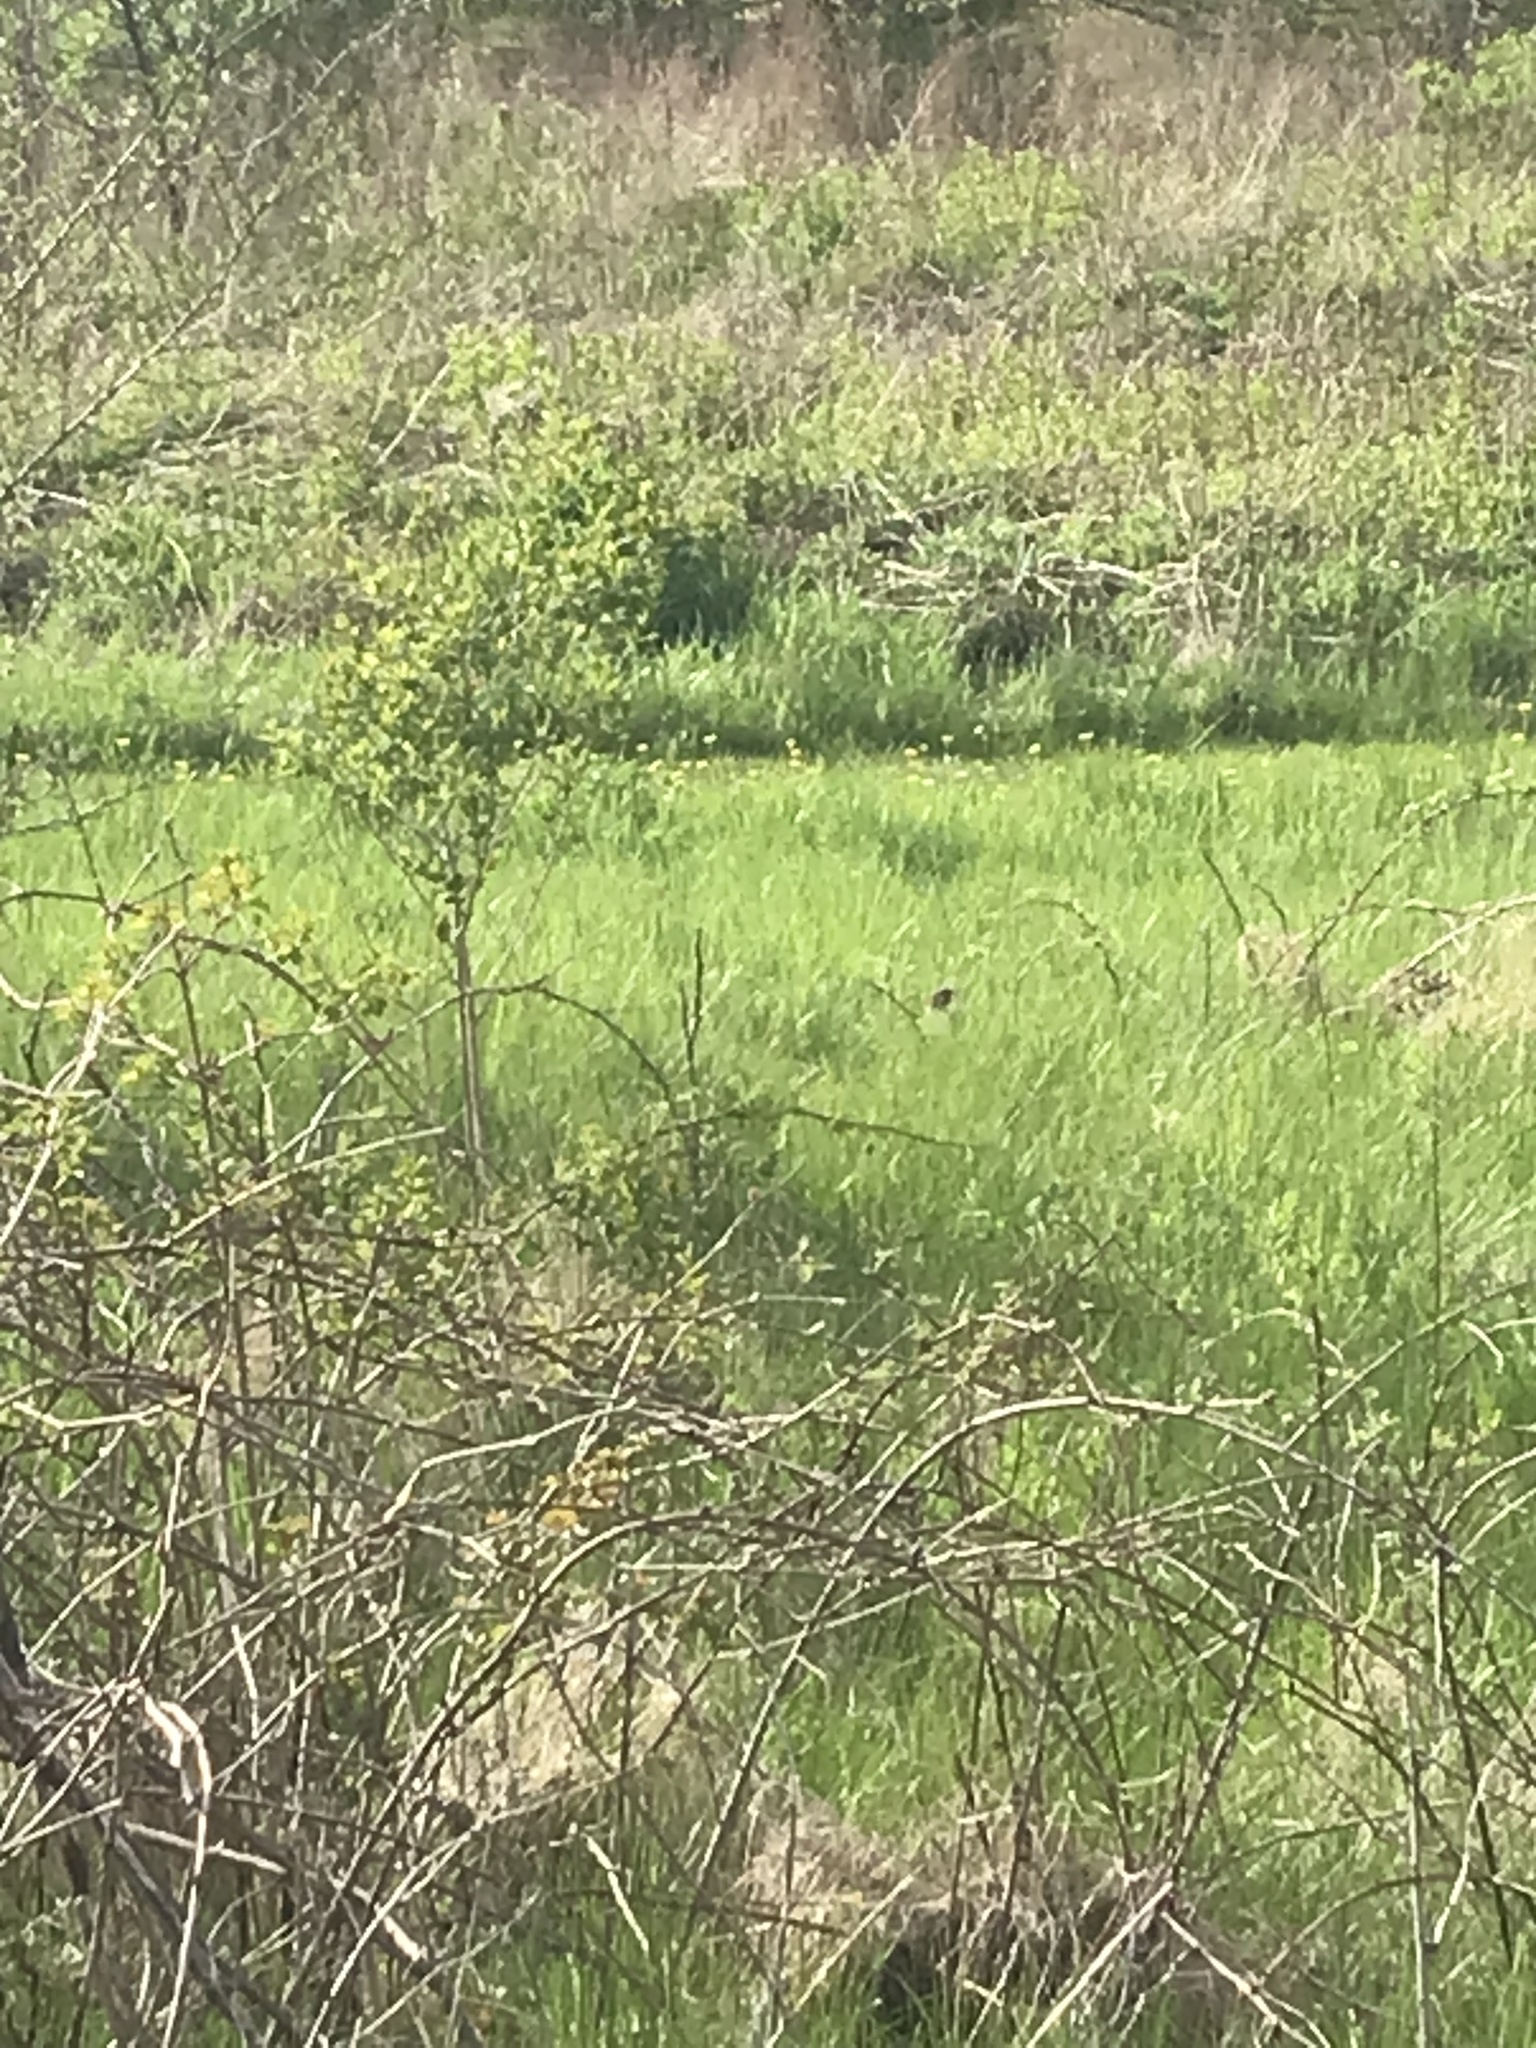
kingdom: Animalia
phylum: Chordata
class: Aves
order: Piciformes
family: Picidae
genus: Colaptes
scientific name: Colaptes auratus
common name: Northern flicker
